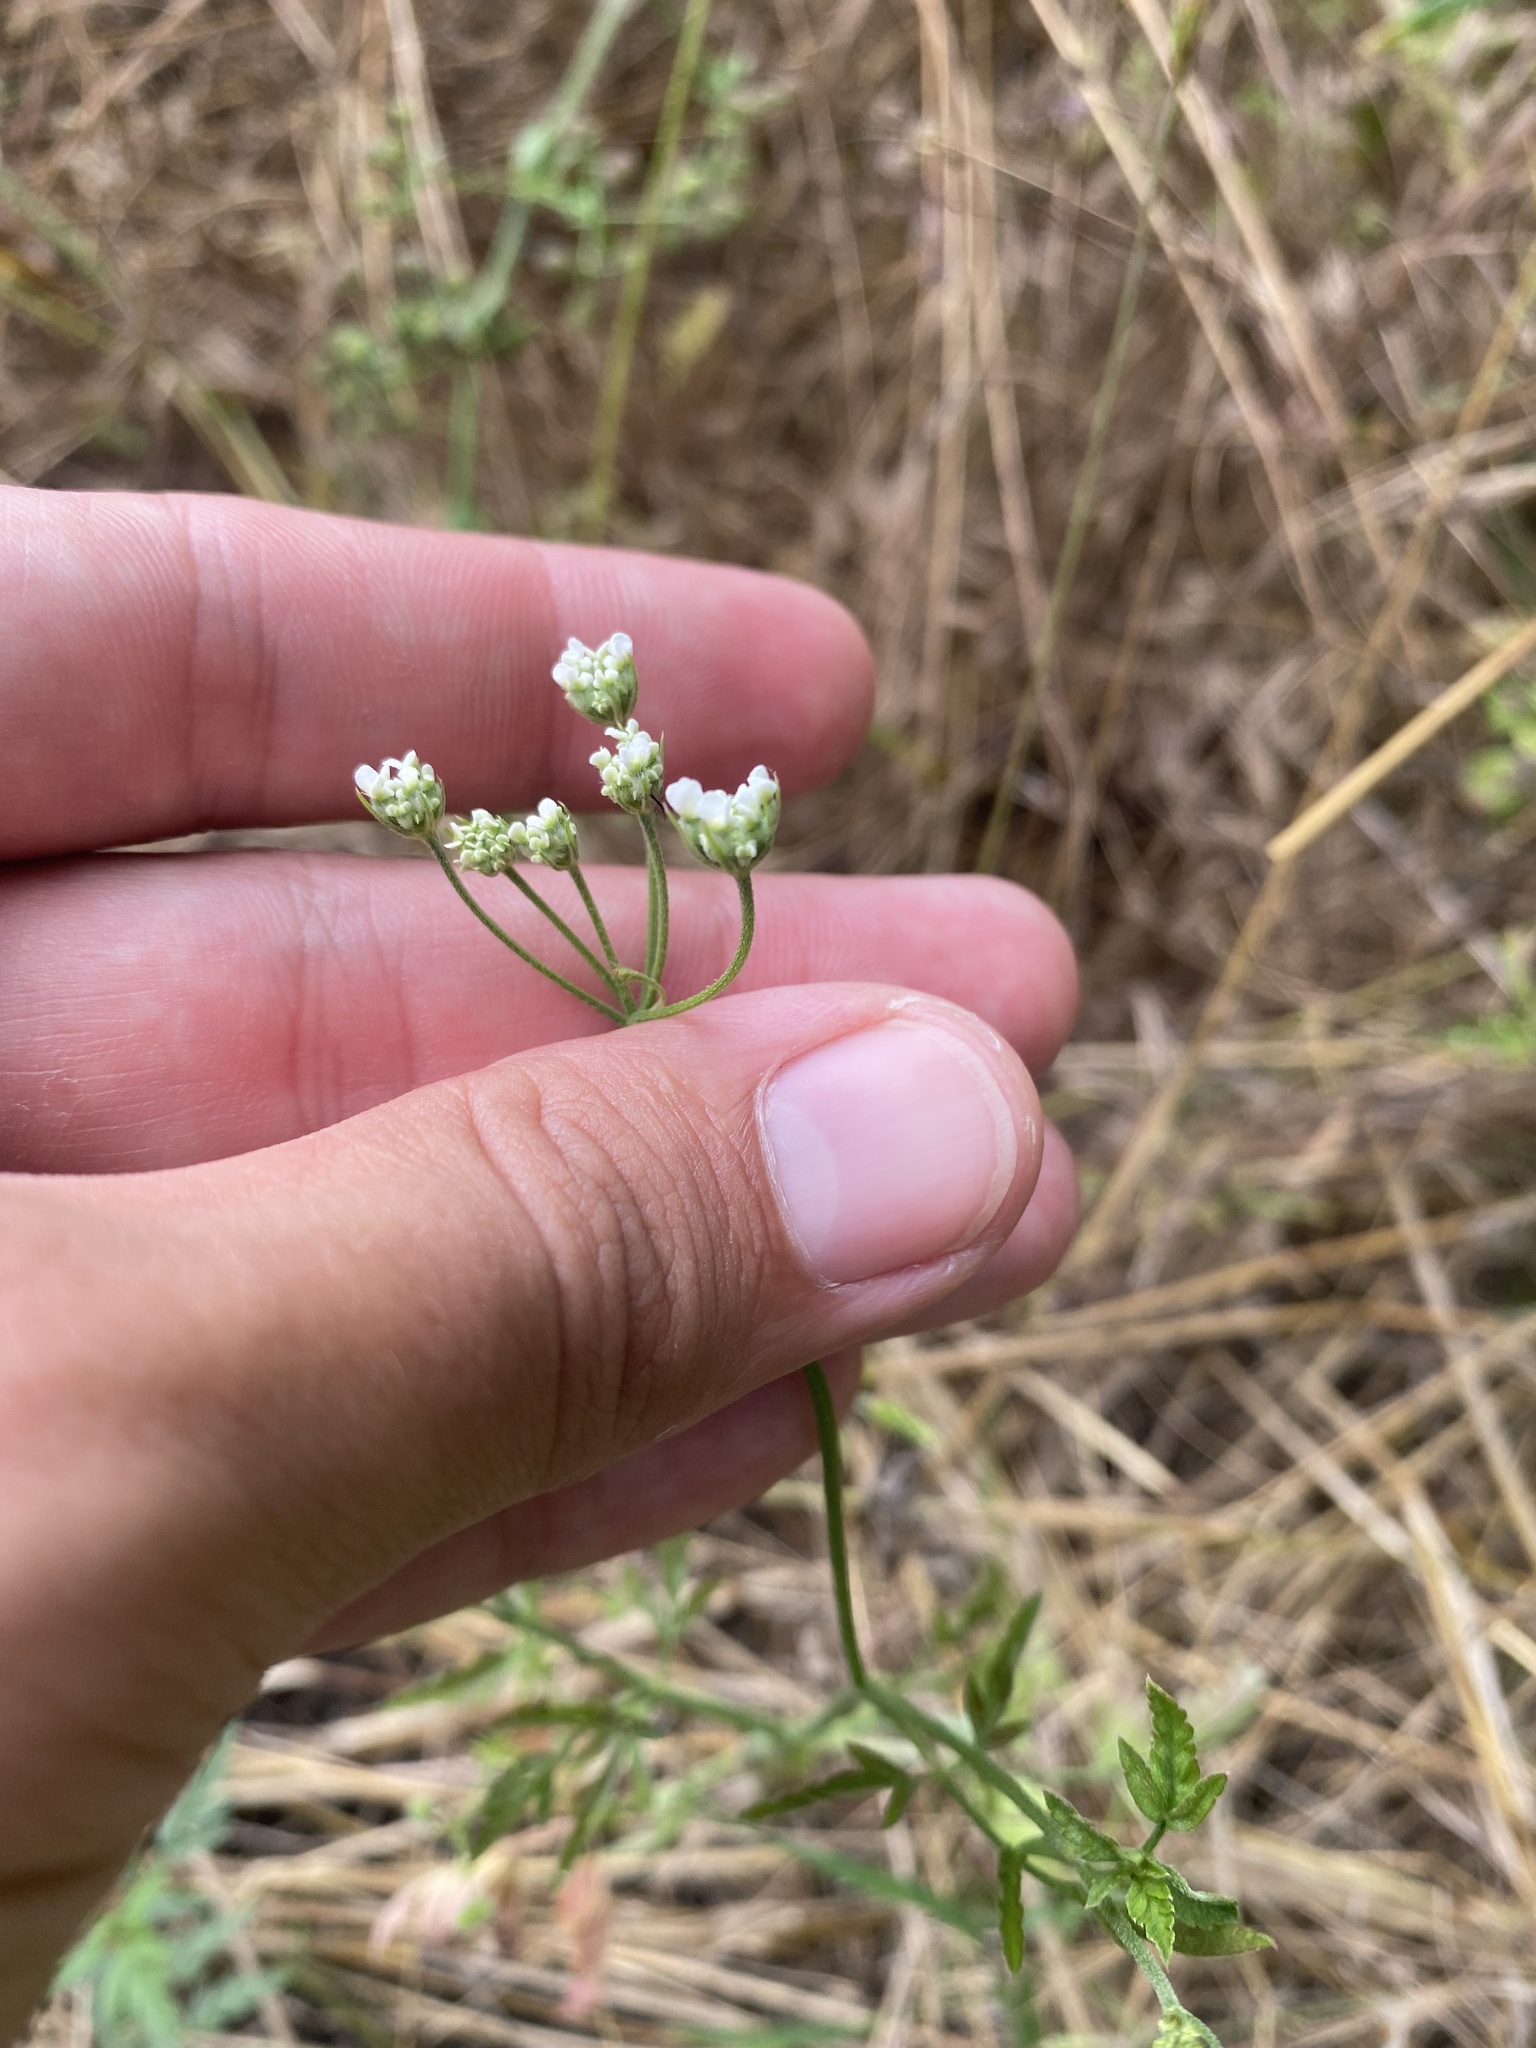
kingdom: Plantae
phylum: Tracheophyta
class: Magnoliopsida
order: Apiales
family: Apiaceae
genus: Torilis
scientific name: Torilis arvensis
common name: Spreading hedge-parsley
